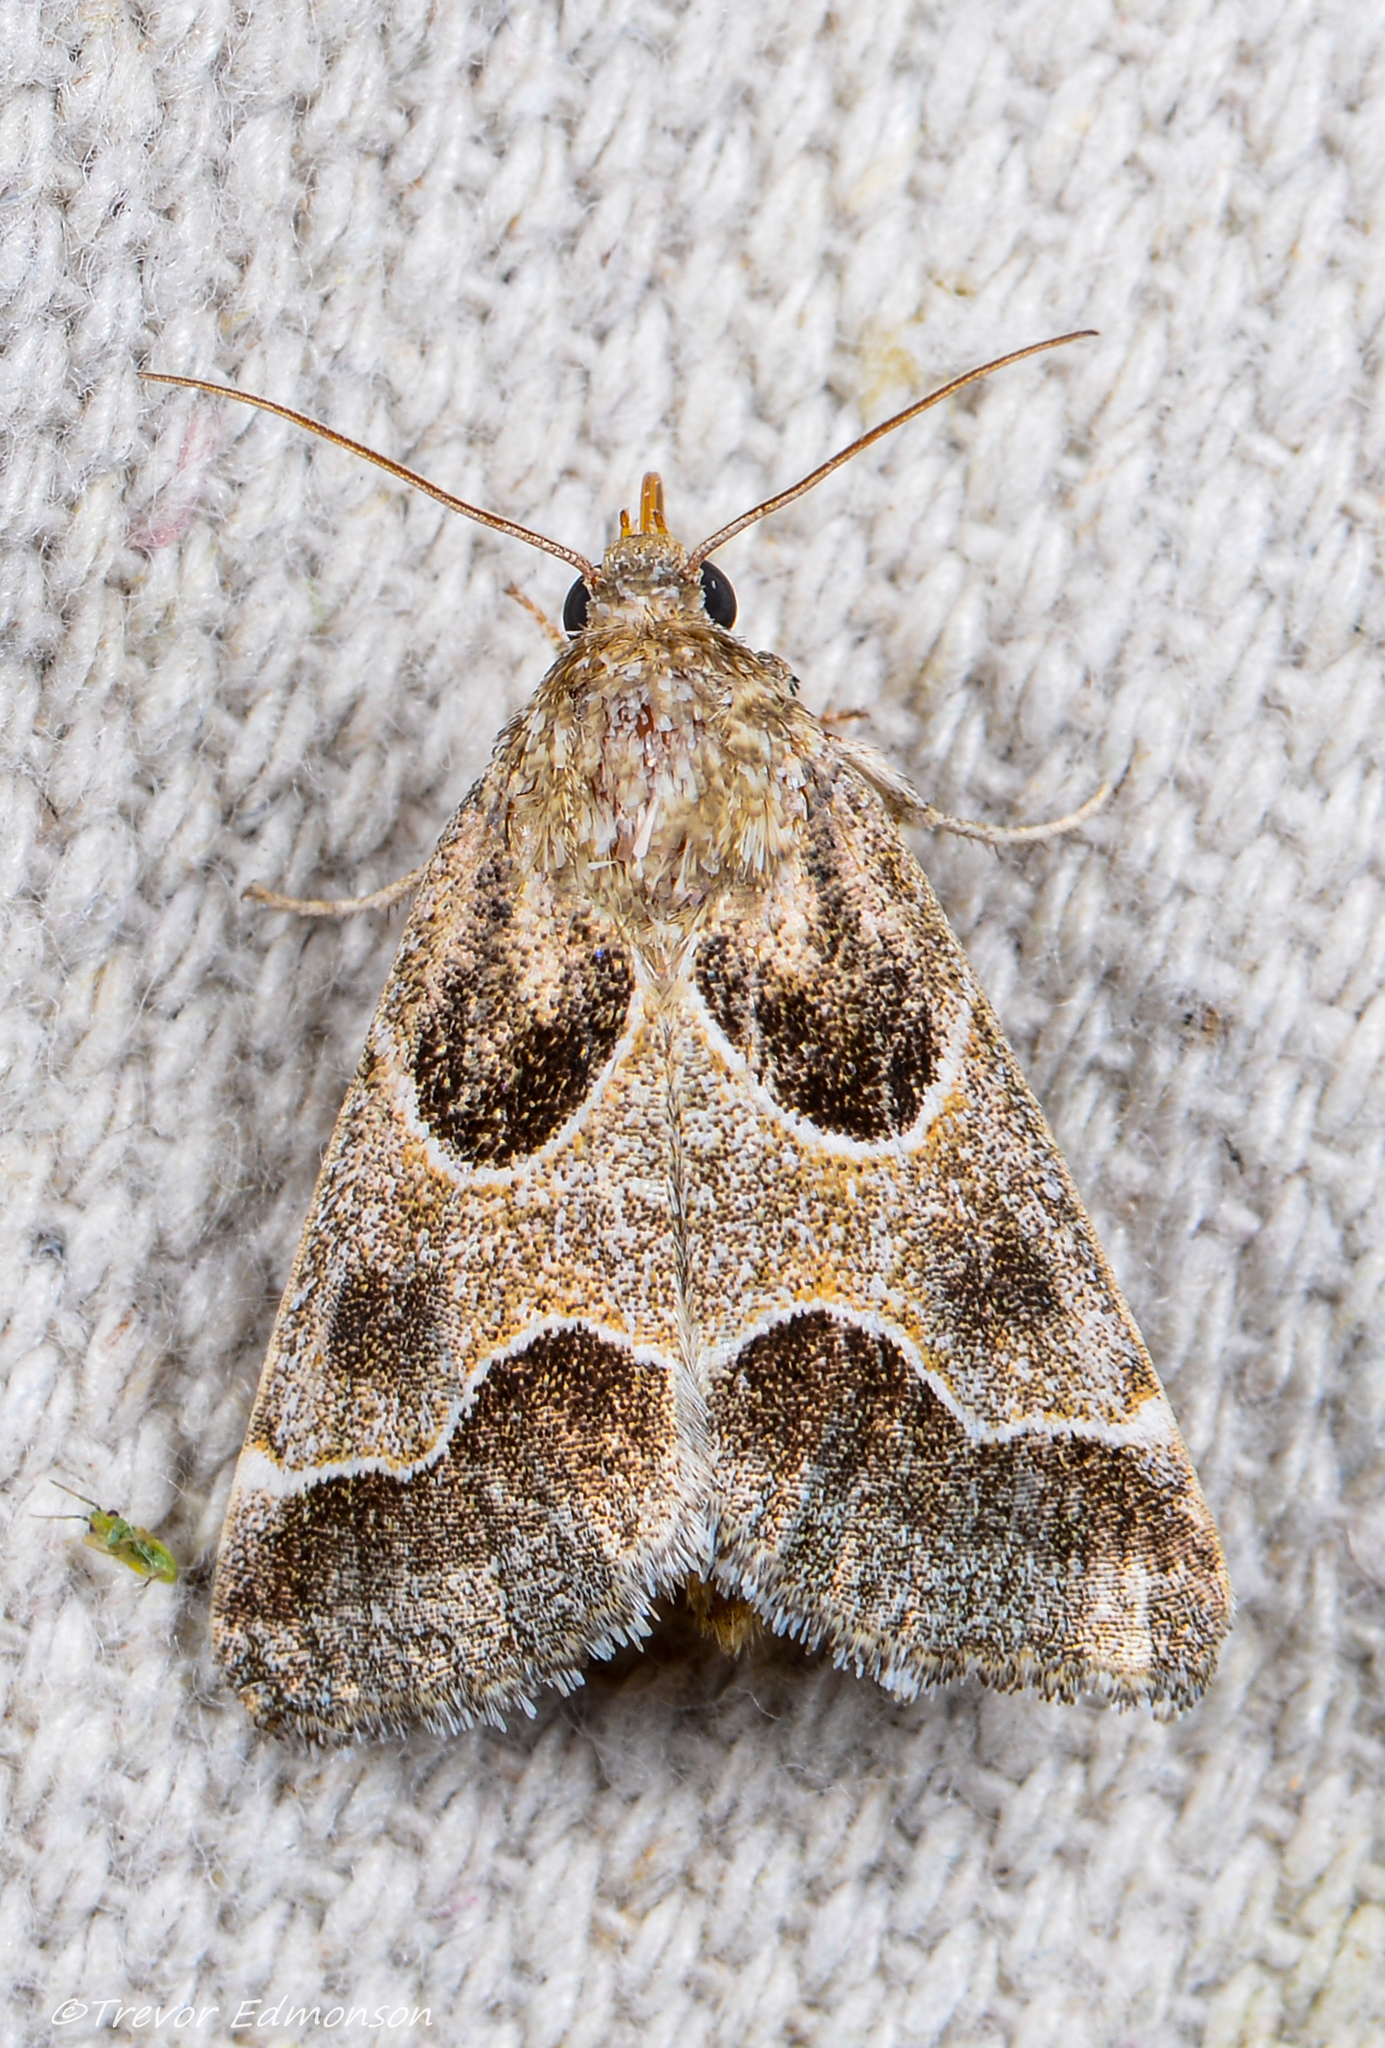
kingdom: Animalia
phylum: Arthropoda
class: Insecta
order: Lepidoptera
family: Noctuidae
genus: Schinia
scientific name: Schinia rivulosa
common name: Scarce meal-moth
